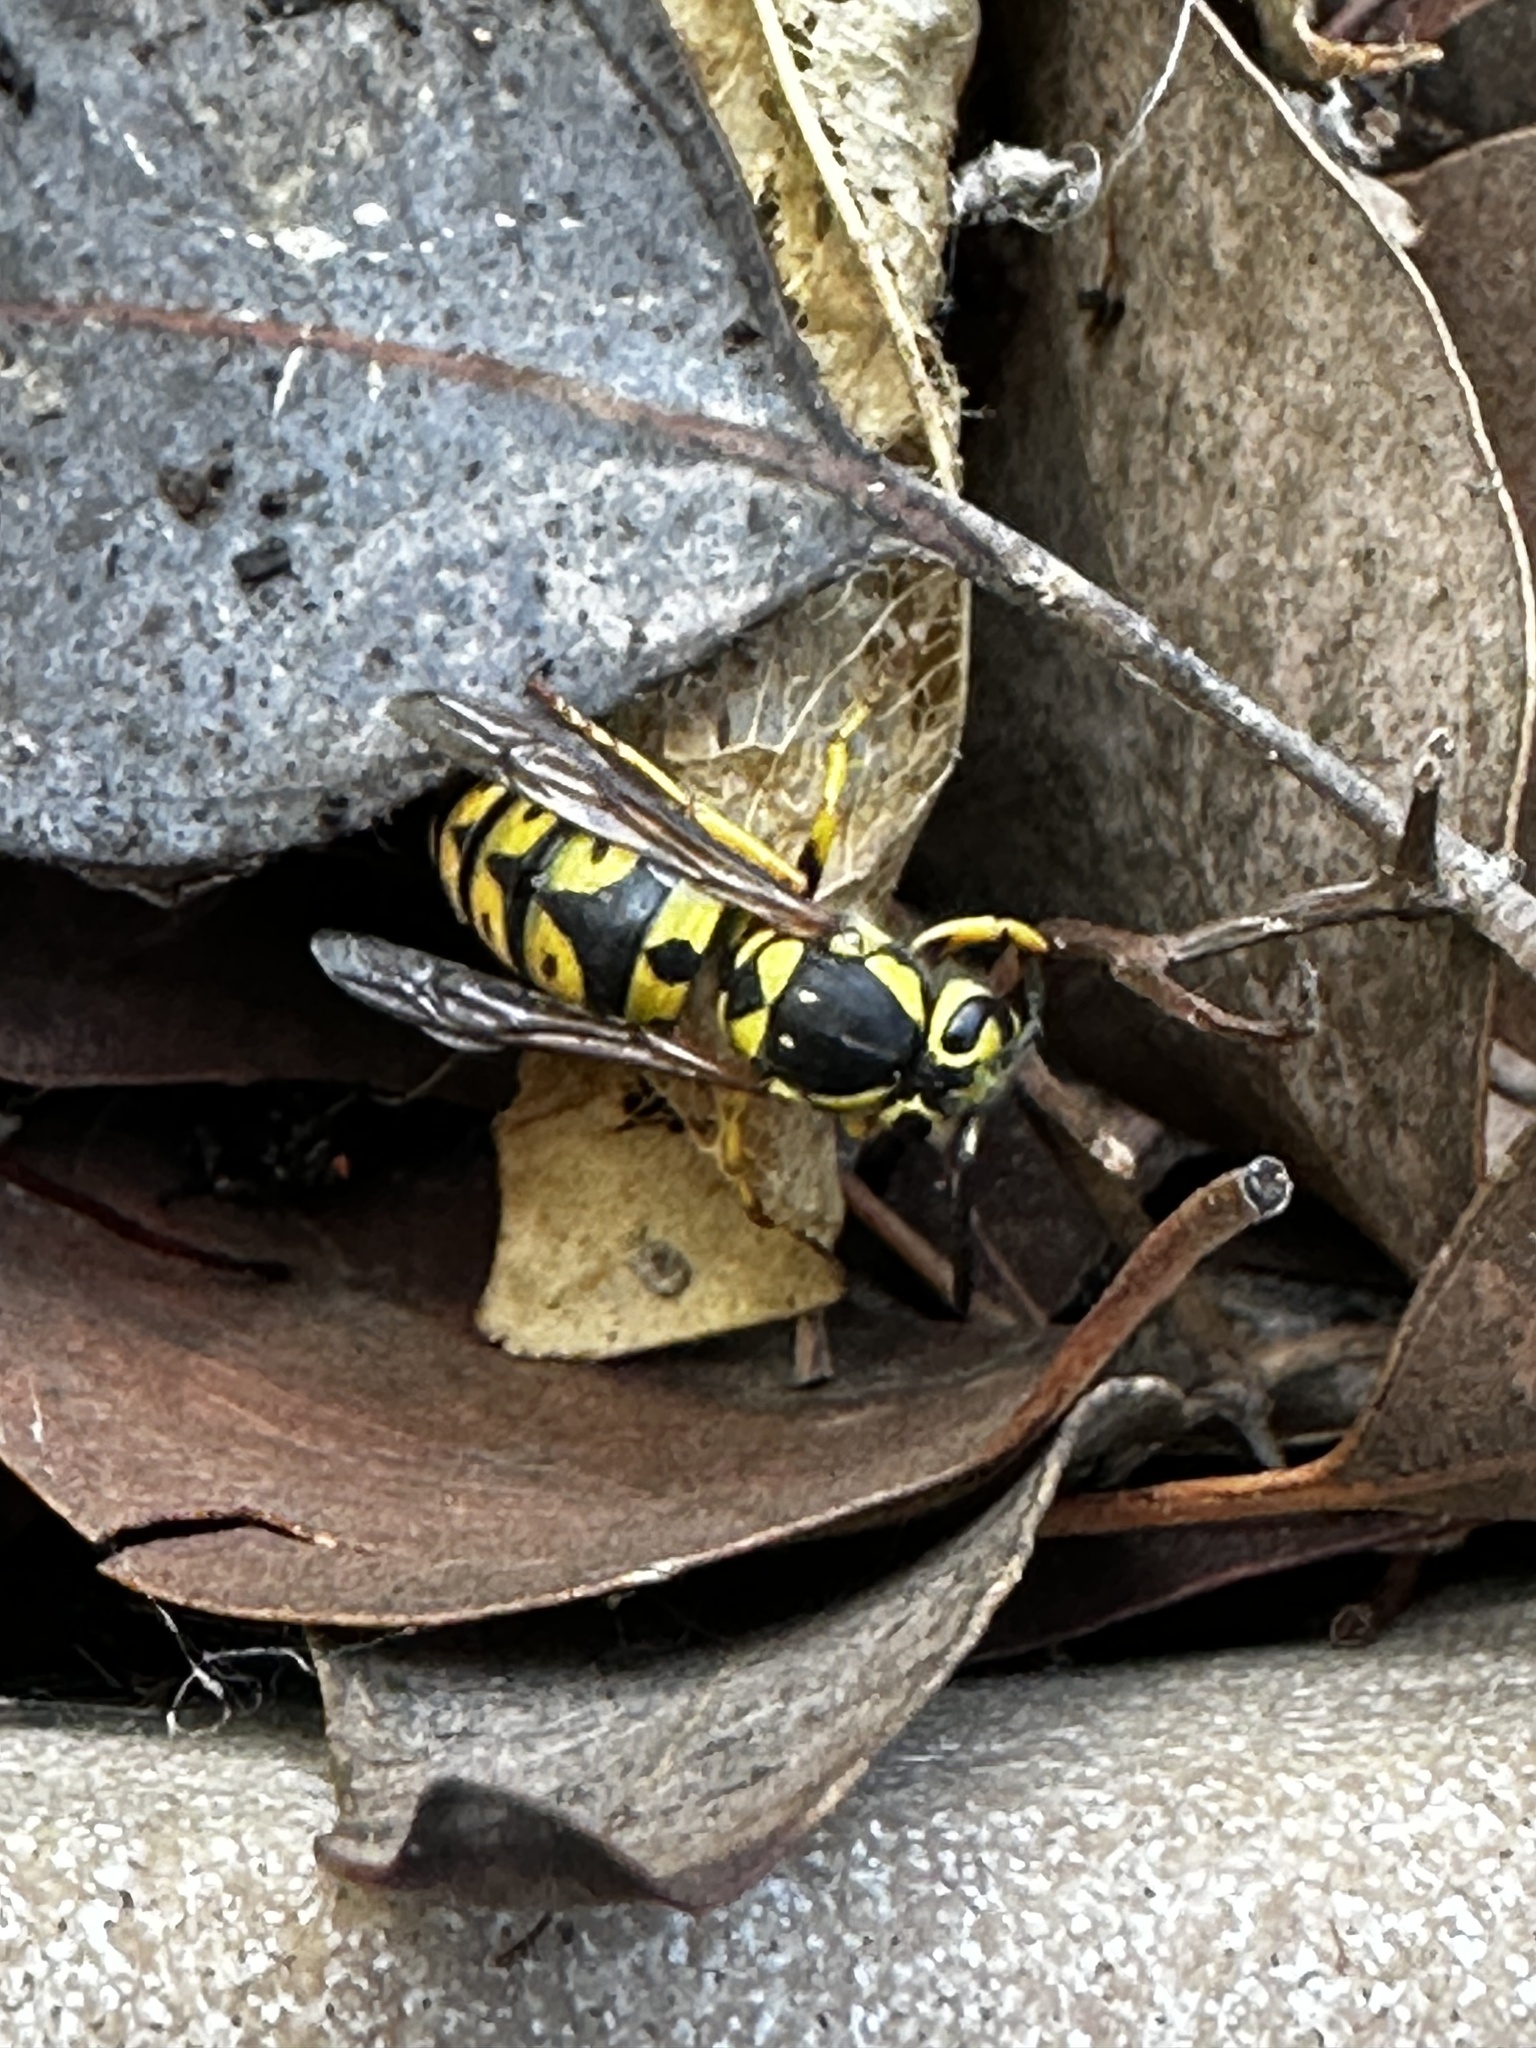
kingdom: Animalia
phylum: Arthropoda
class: Insecta
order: Hymenoptera
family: Vespidae
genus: Vespula
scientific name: Vespula pensylvanica
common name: Western yellowjacket
